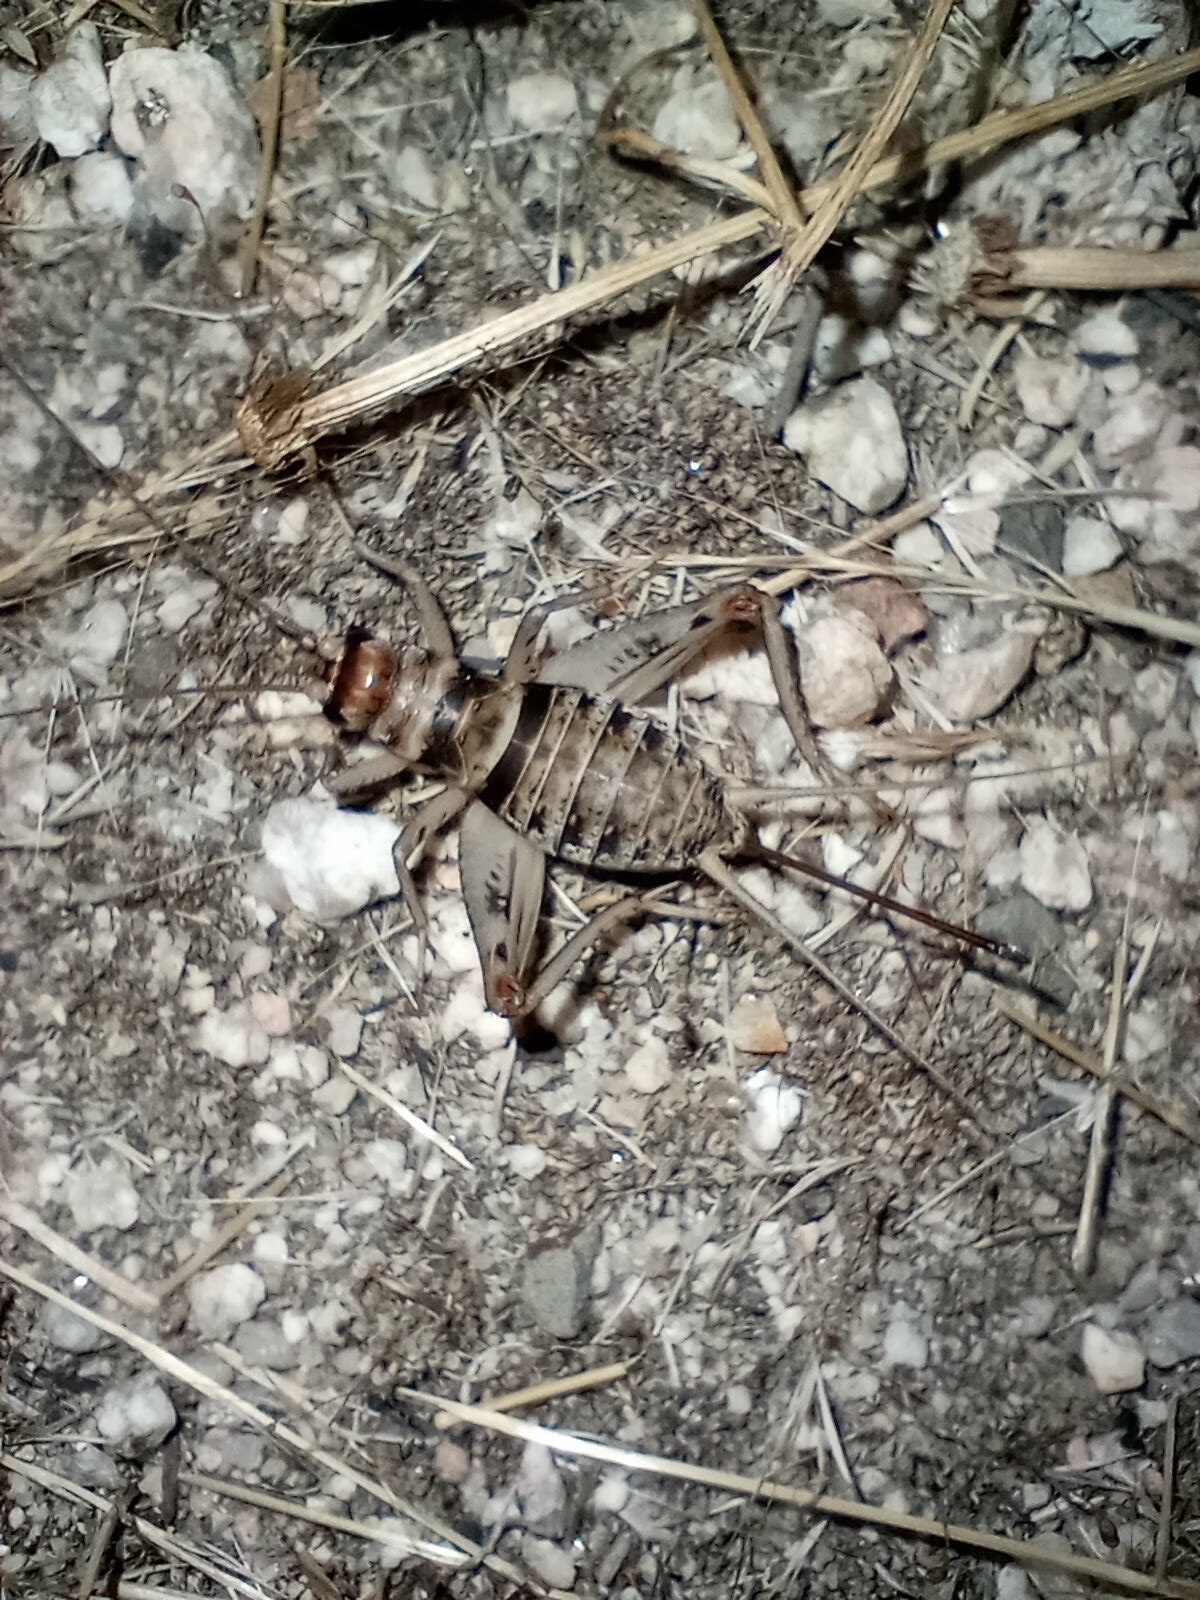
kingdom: Animalia
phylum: Arthropoda
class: Insecta
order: Orthoptera
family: Gryllidae
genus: Gryllodes
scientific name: Gryllodes sigillatus
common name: Tropical house cricket
